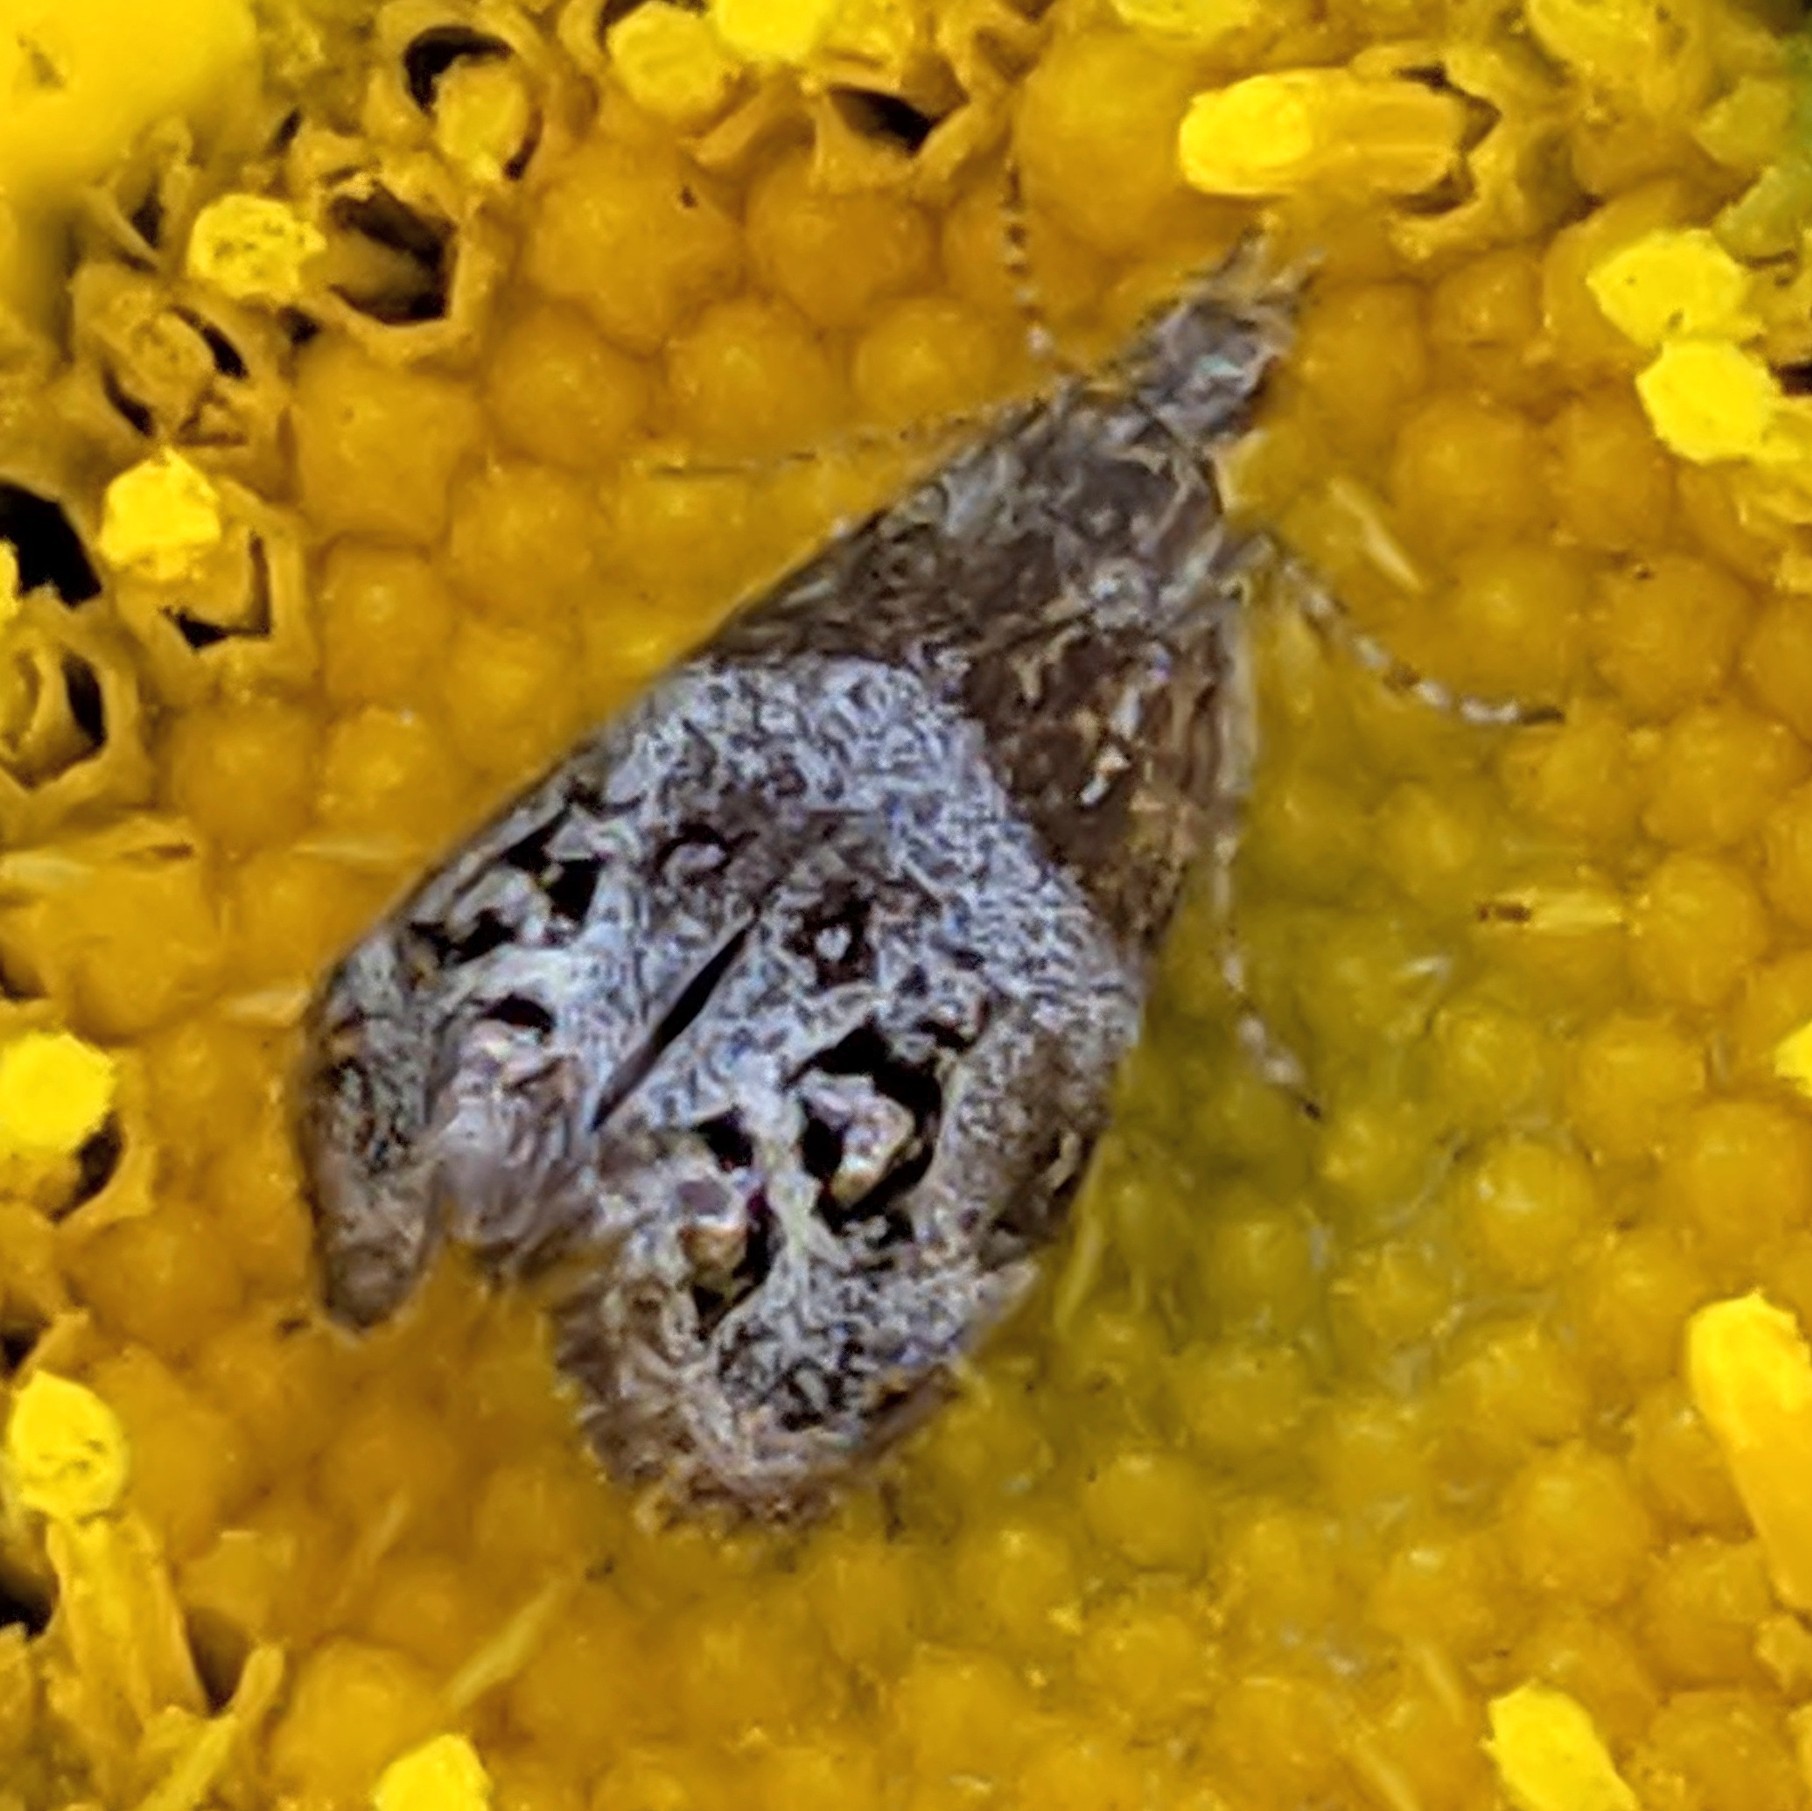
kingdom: Animalia
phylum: Arthropoda
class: Insecta
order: Lepidoptera
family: Choreutidae
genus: Tebenna
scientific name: Tebenna gnaphaliella
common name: Everlasting tebenna moth
